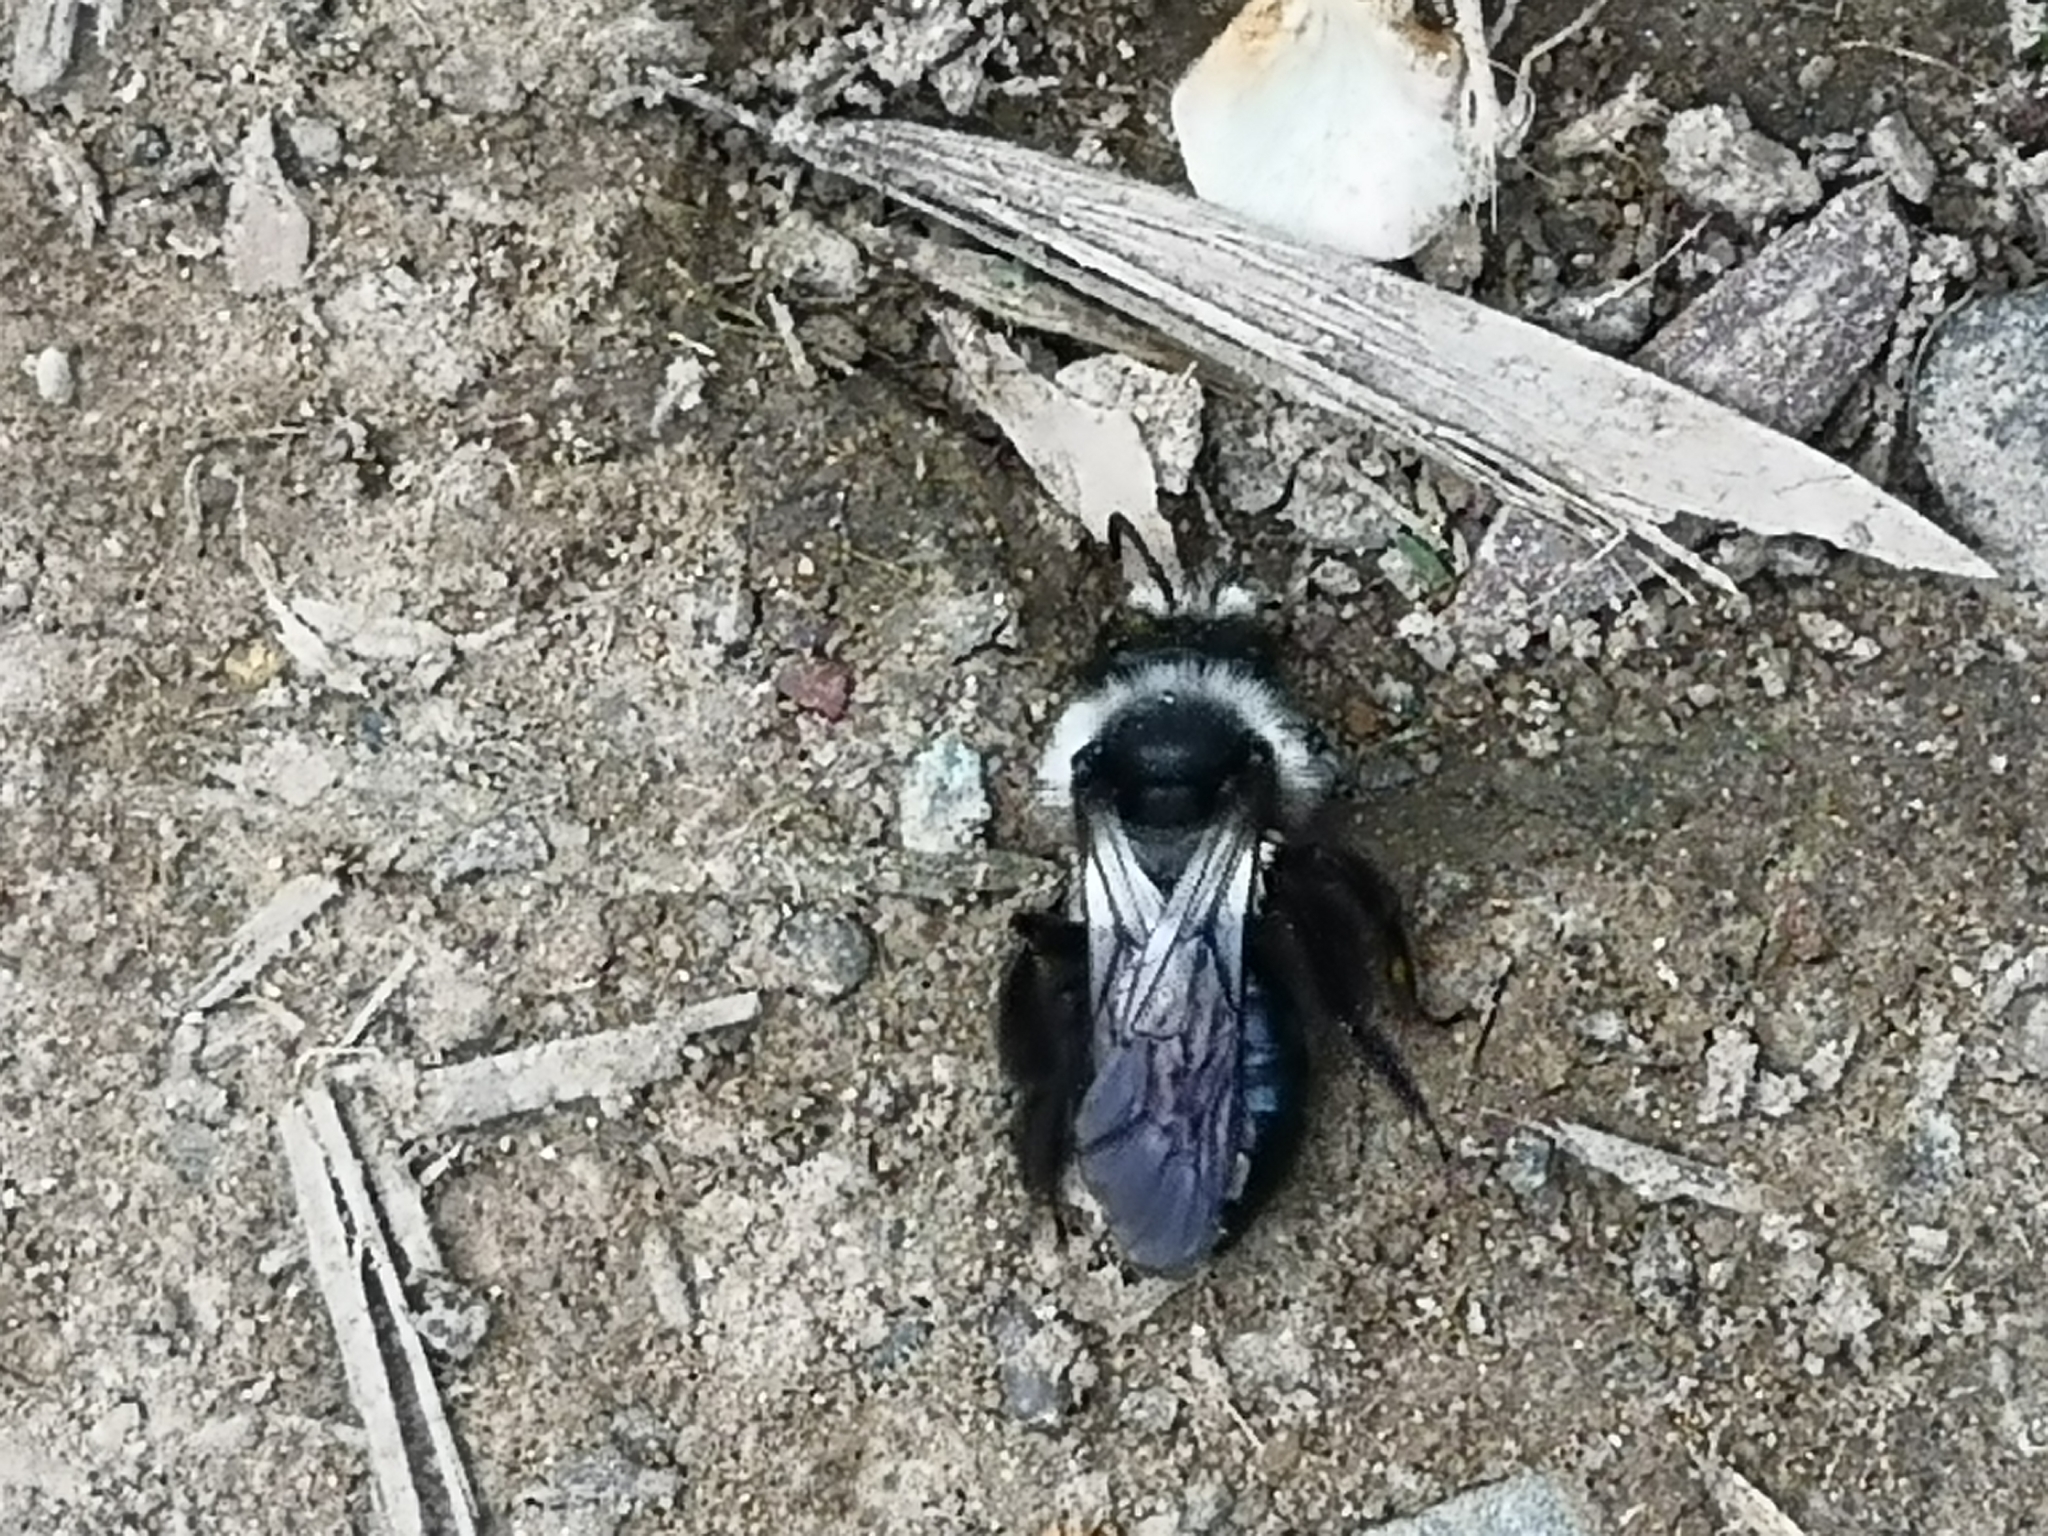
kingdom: Animalia
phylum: Arthropoda
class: Insecta
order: Hymenoptera
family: Andrenidae
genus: Andrena
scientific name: Andrena cineraria
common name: Ashy mining bee
